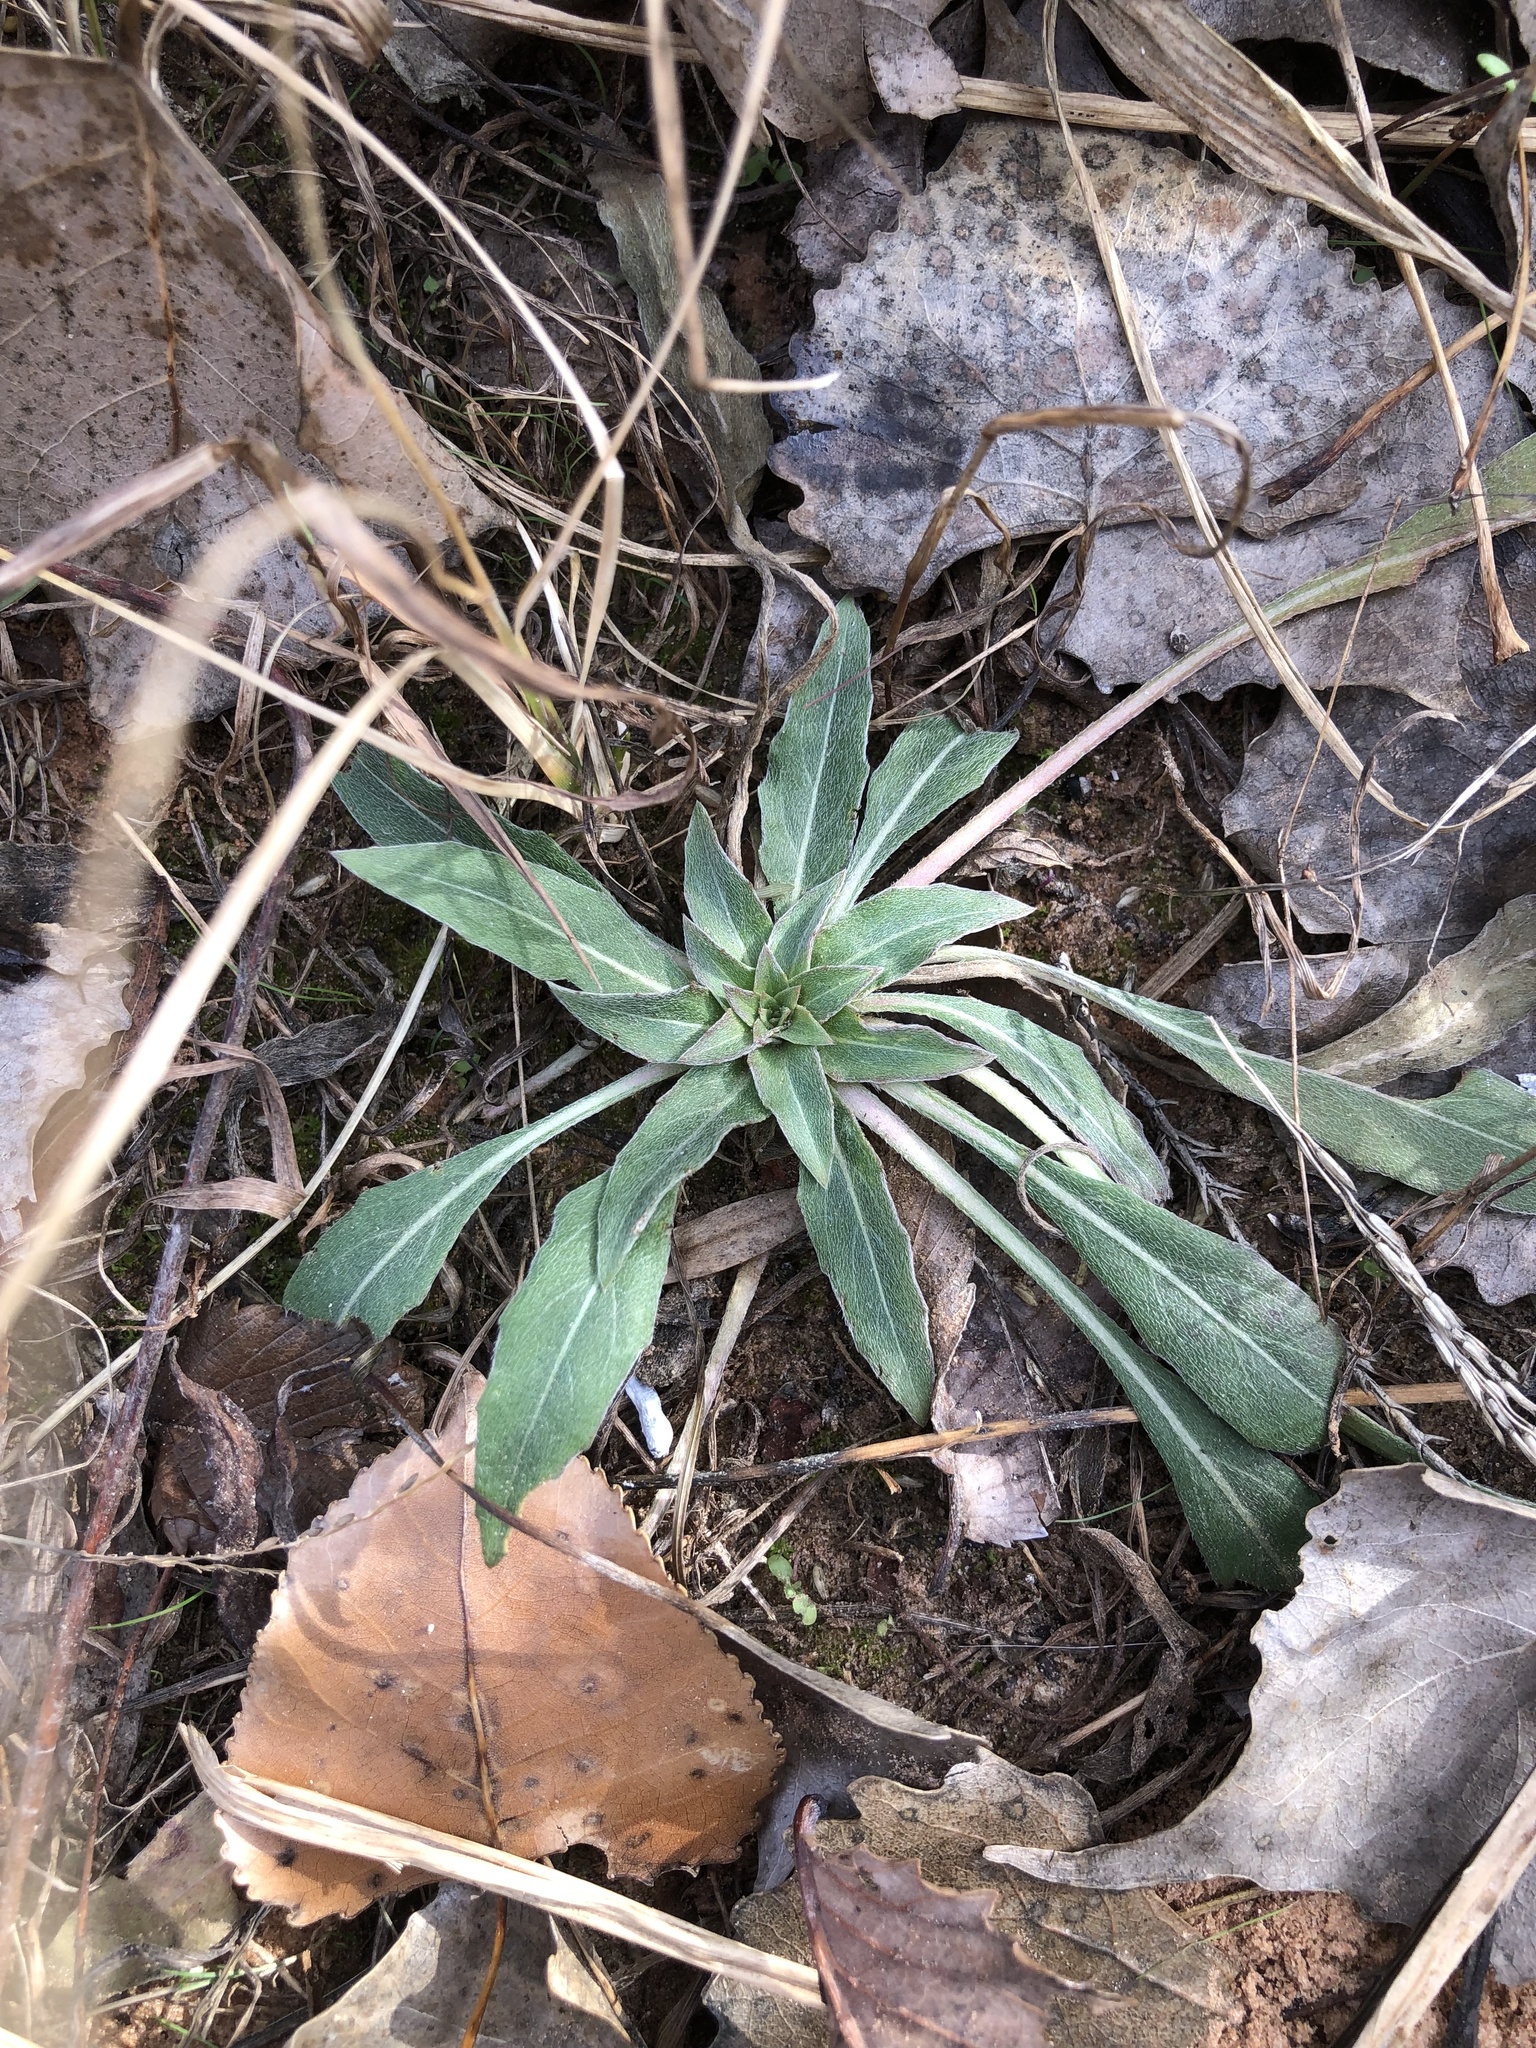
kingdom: Plantae
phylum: Tracheophyta
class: Magnoliopsida
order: Myrtales
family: Onagraceae
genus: Oenothera
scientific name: Oenothera biennis
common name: Common evening-primrose
